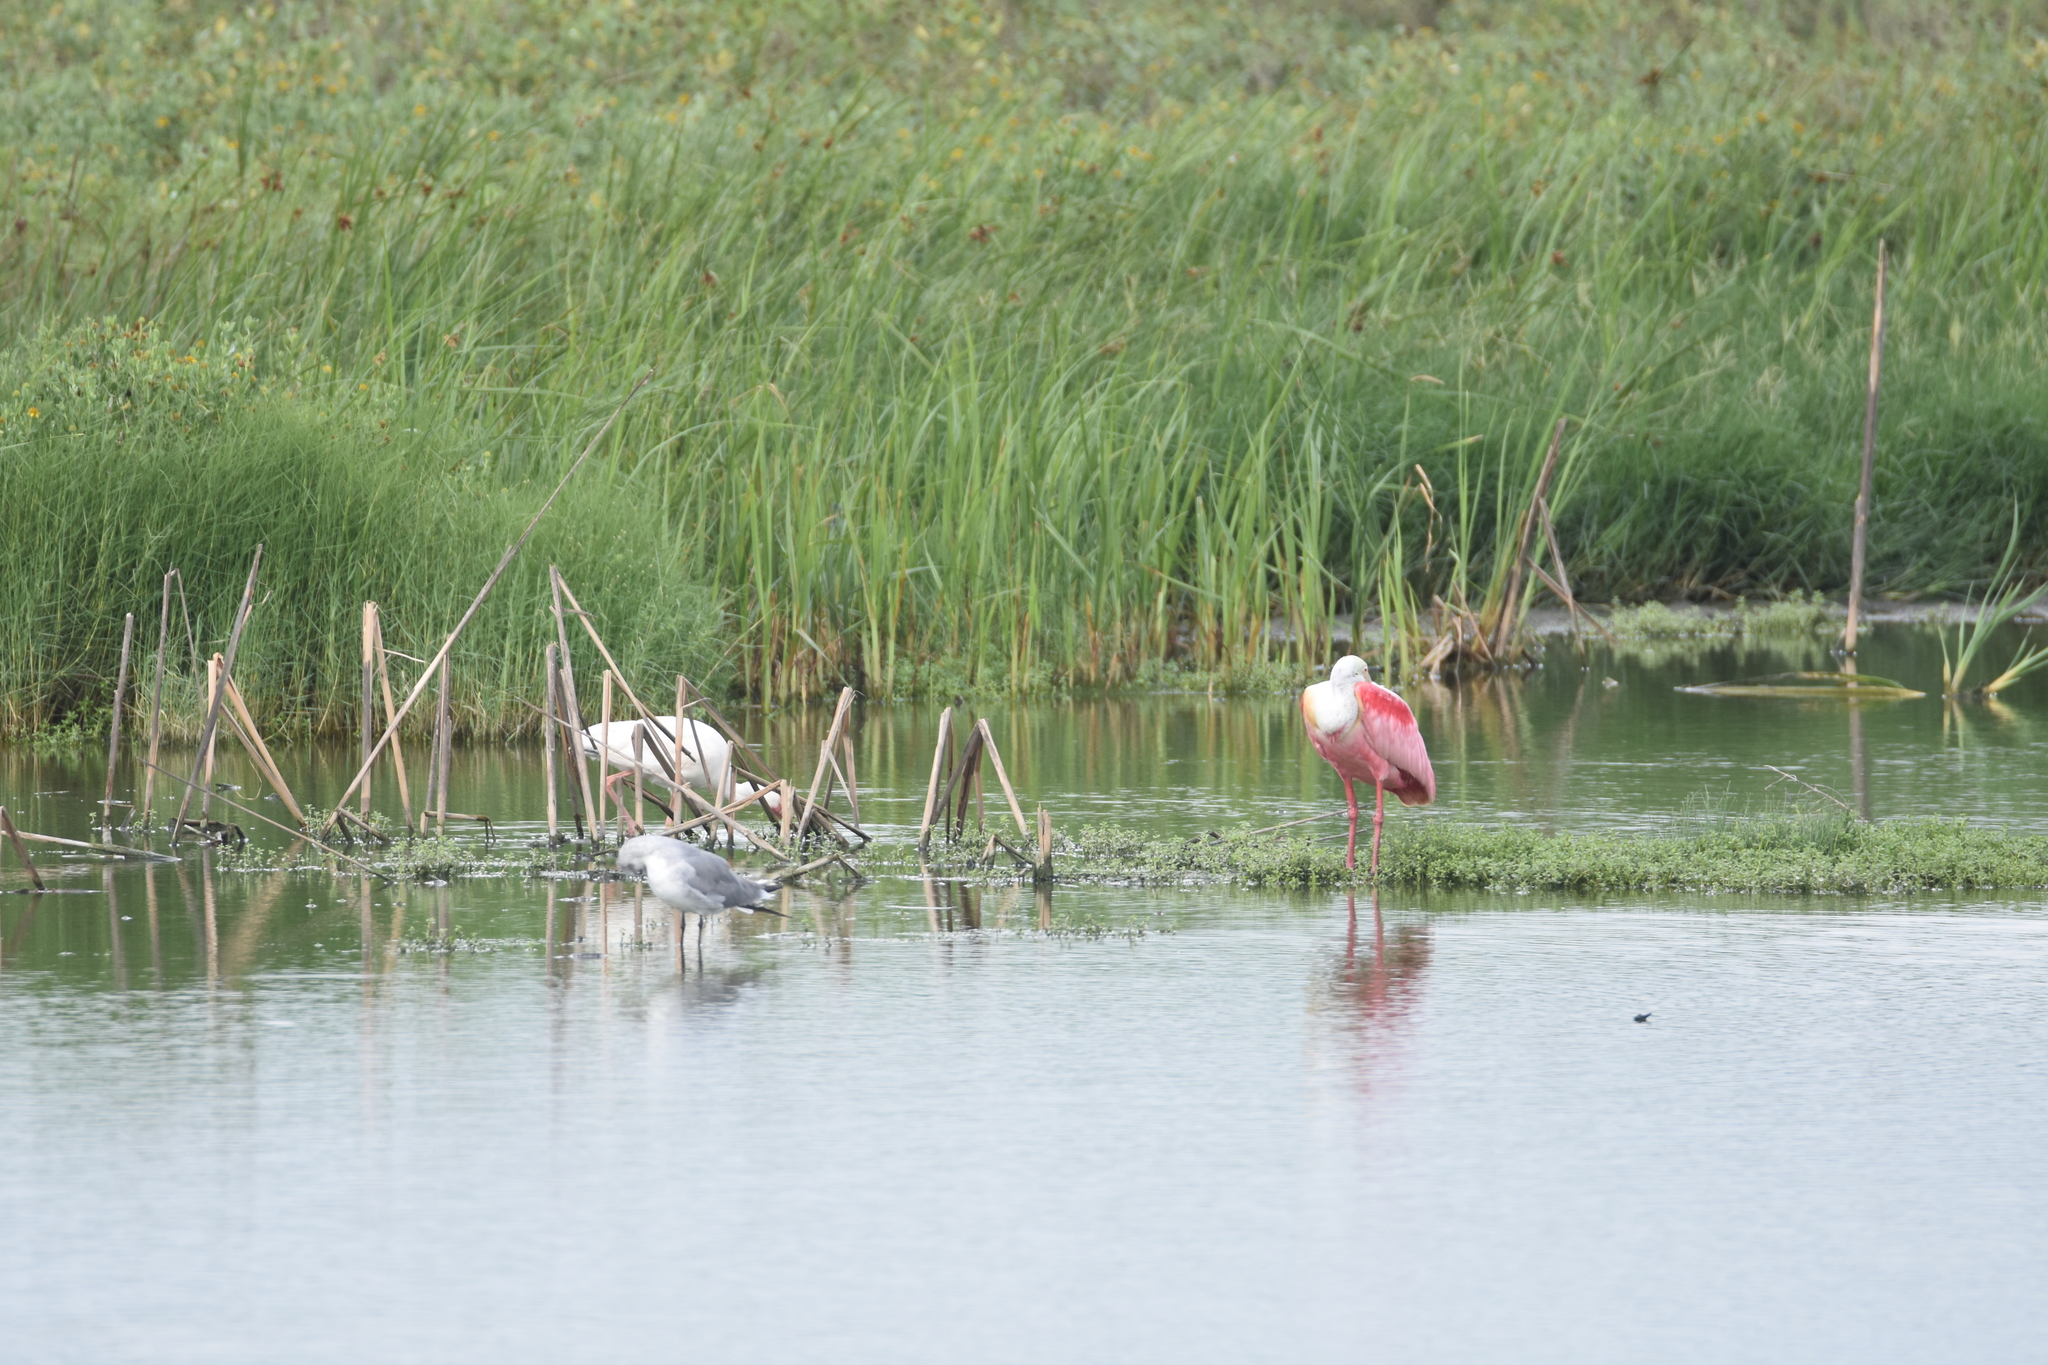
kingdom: Animalia
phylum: Chordata
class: Aves
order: Pelecaniformes
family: Threskiornithidae
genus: Platalea
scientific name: Platalea ajaja
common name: Roseate spoonbill
